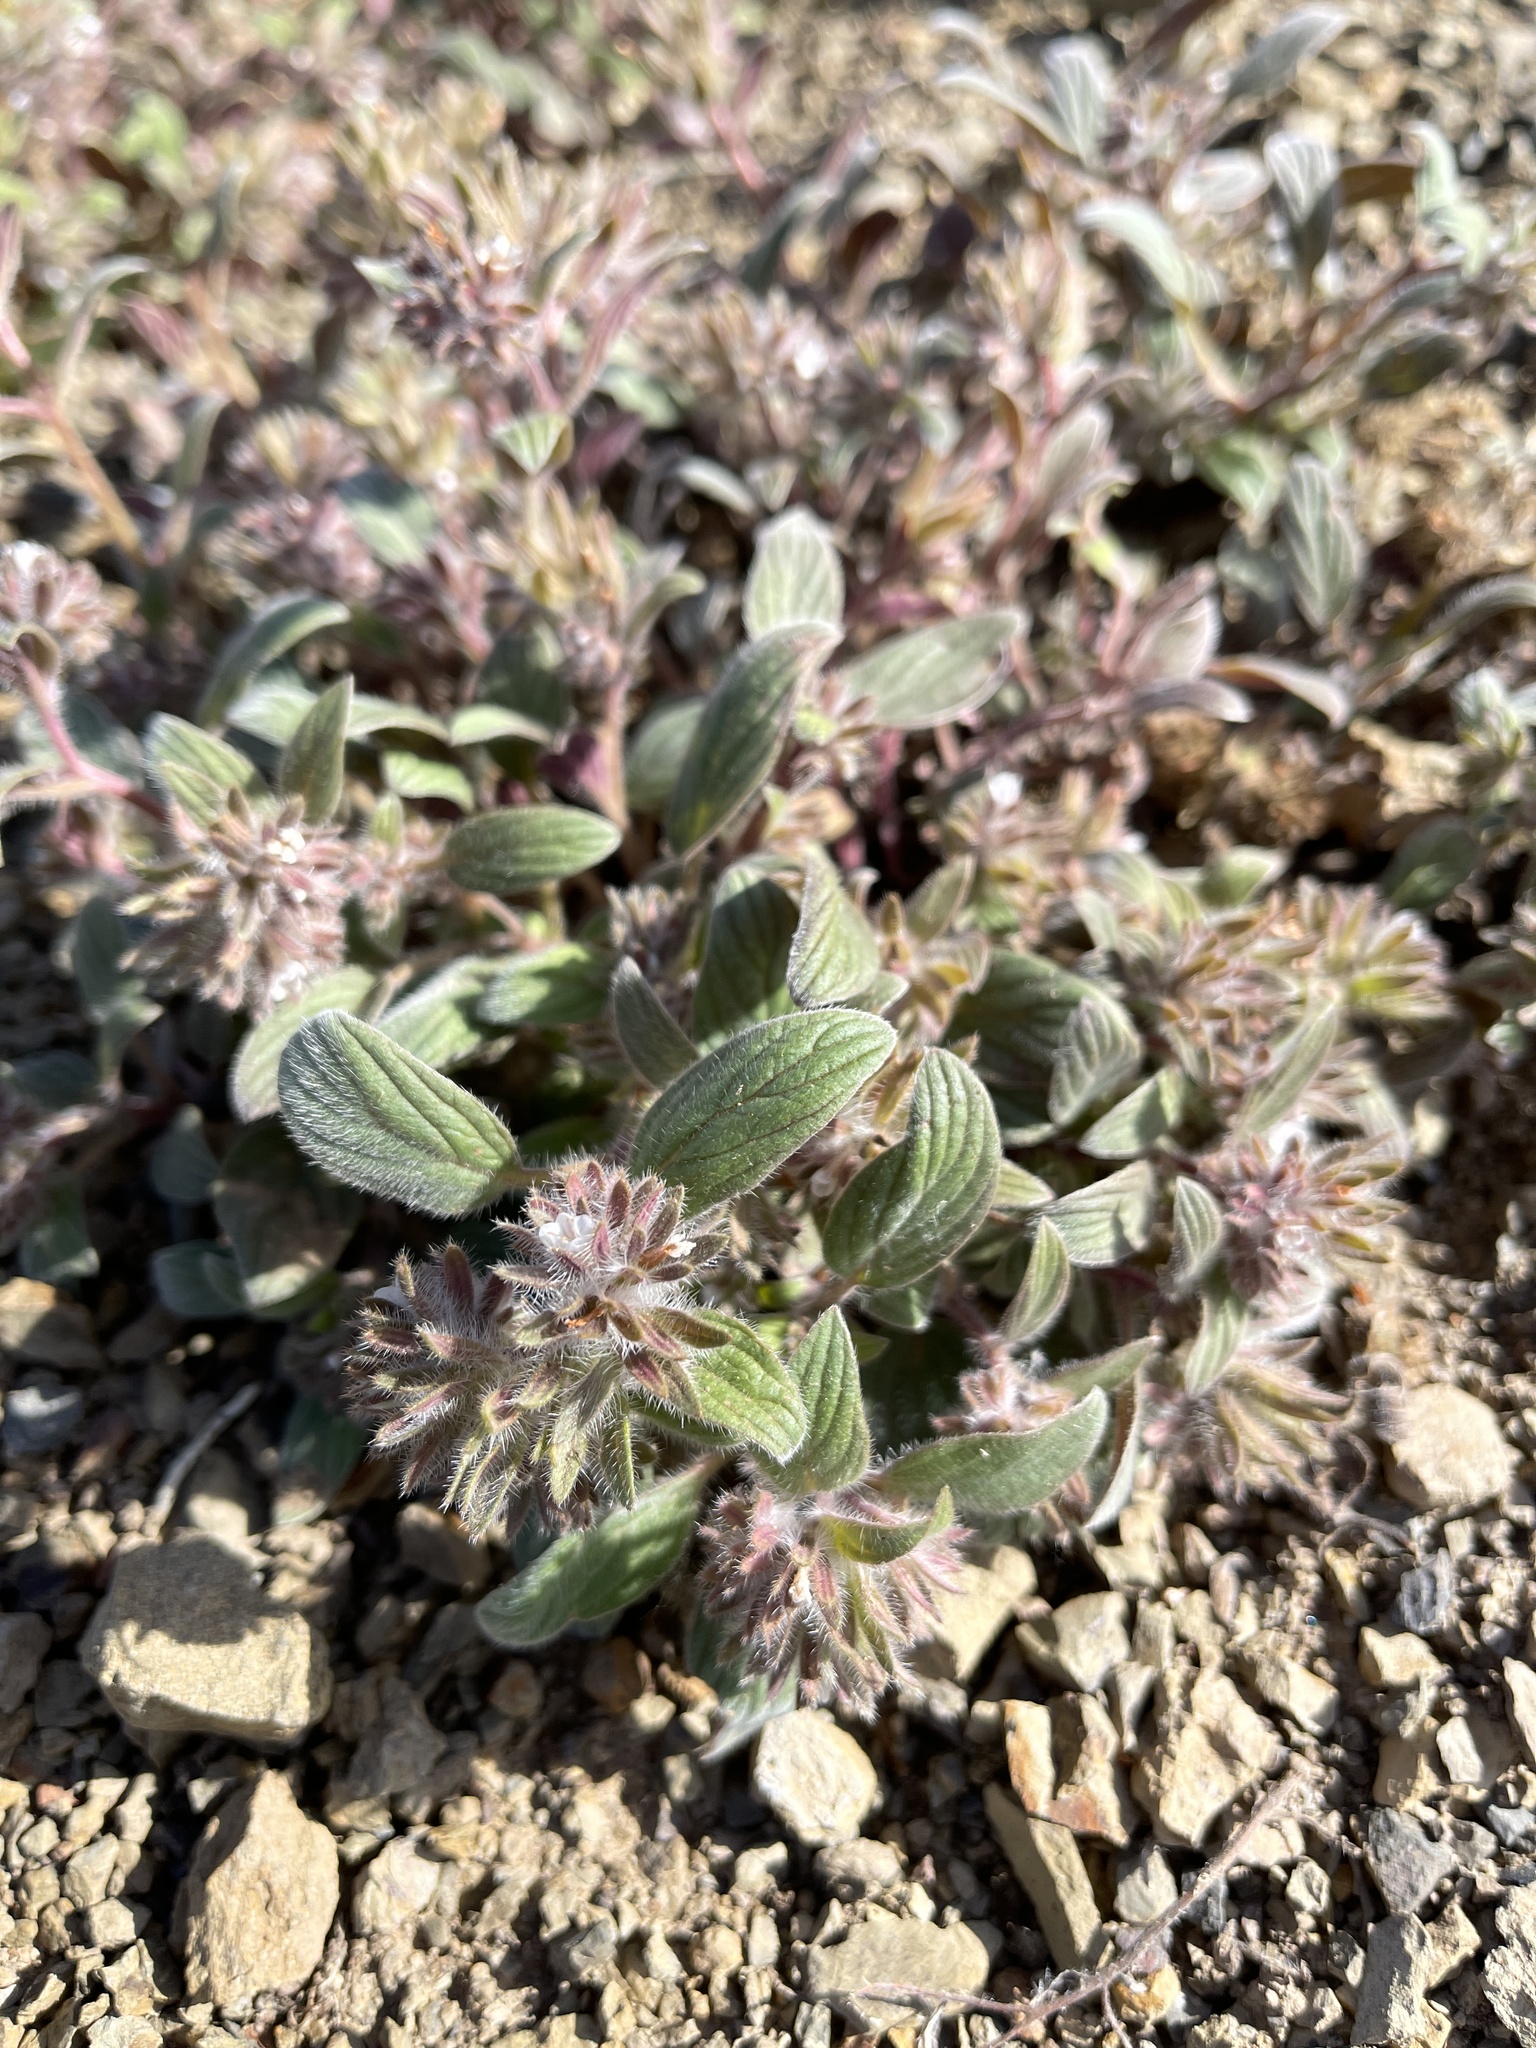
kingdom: Plantae
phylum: Tracheophyta
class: Magnoliopsida
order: Boraginales
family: Hydrophyllaceae
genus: Phacelia
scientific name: Phacelia phacelioides
